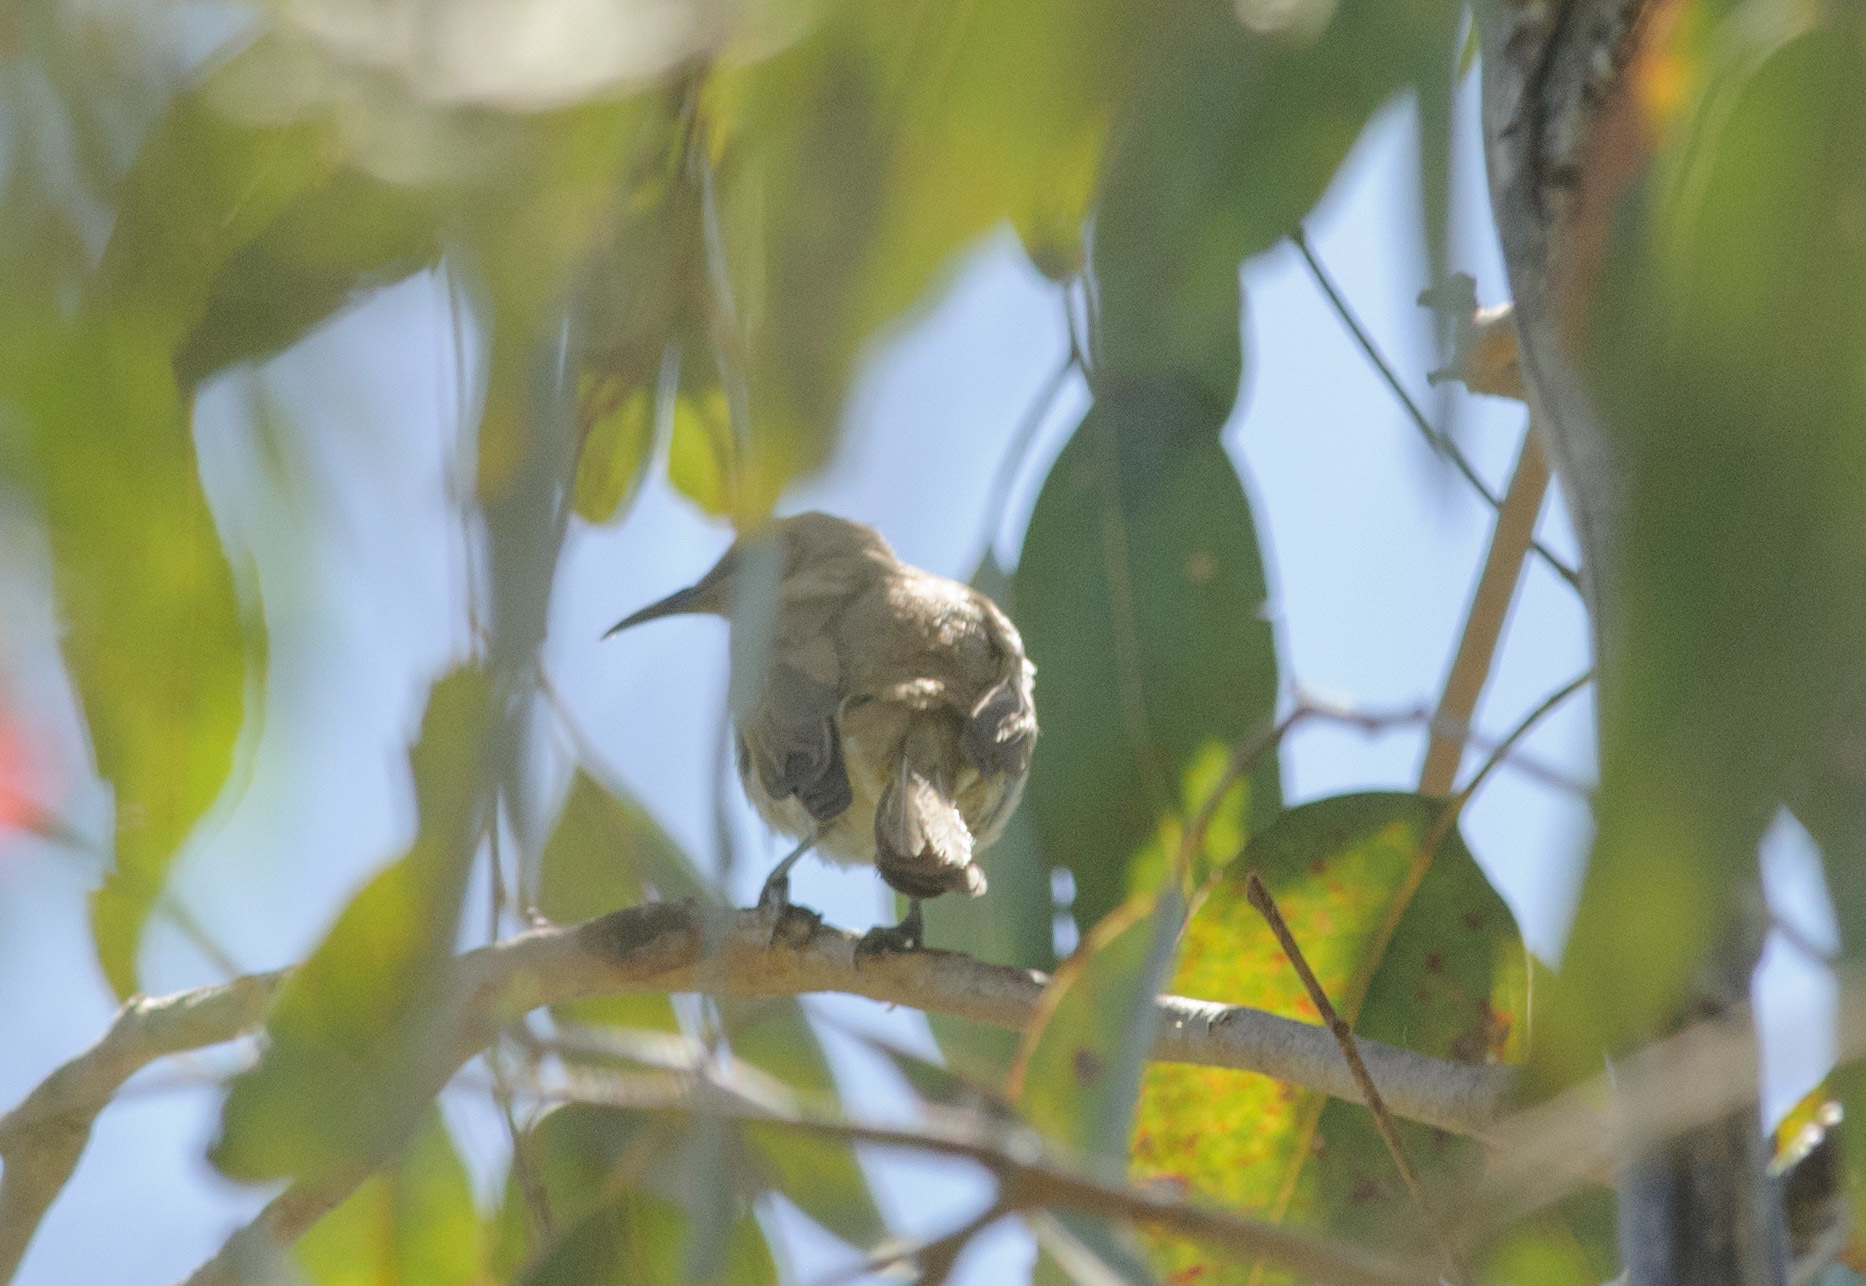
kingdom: Animalia
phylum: Chordata
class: Aves
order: Passeriformes
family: Meliphagidae
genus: Lichmera
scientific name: Lichmera indistincta
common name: Brown honeyeater
